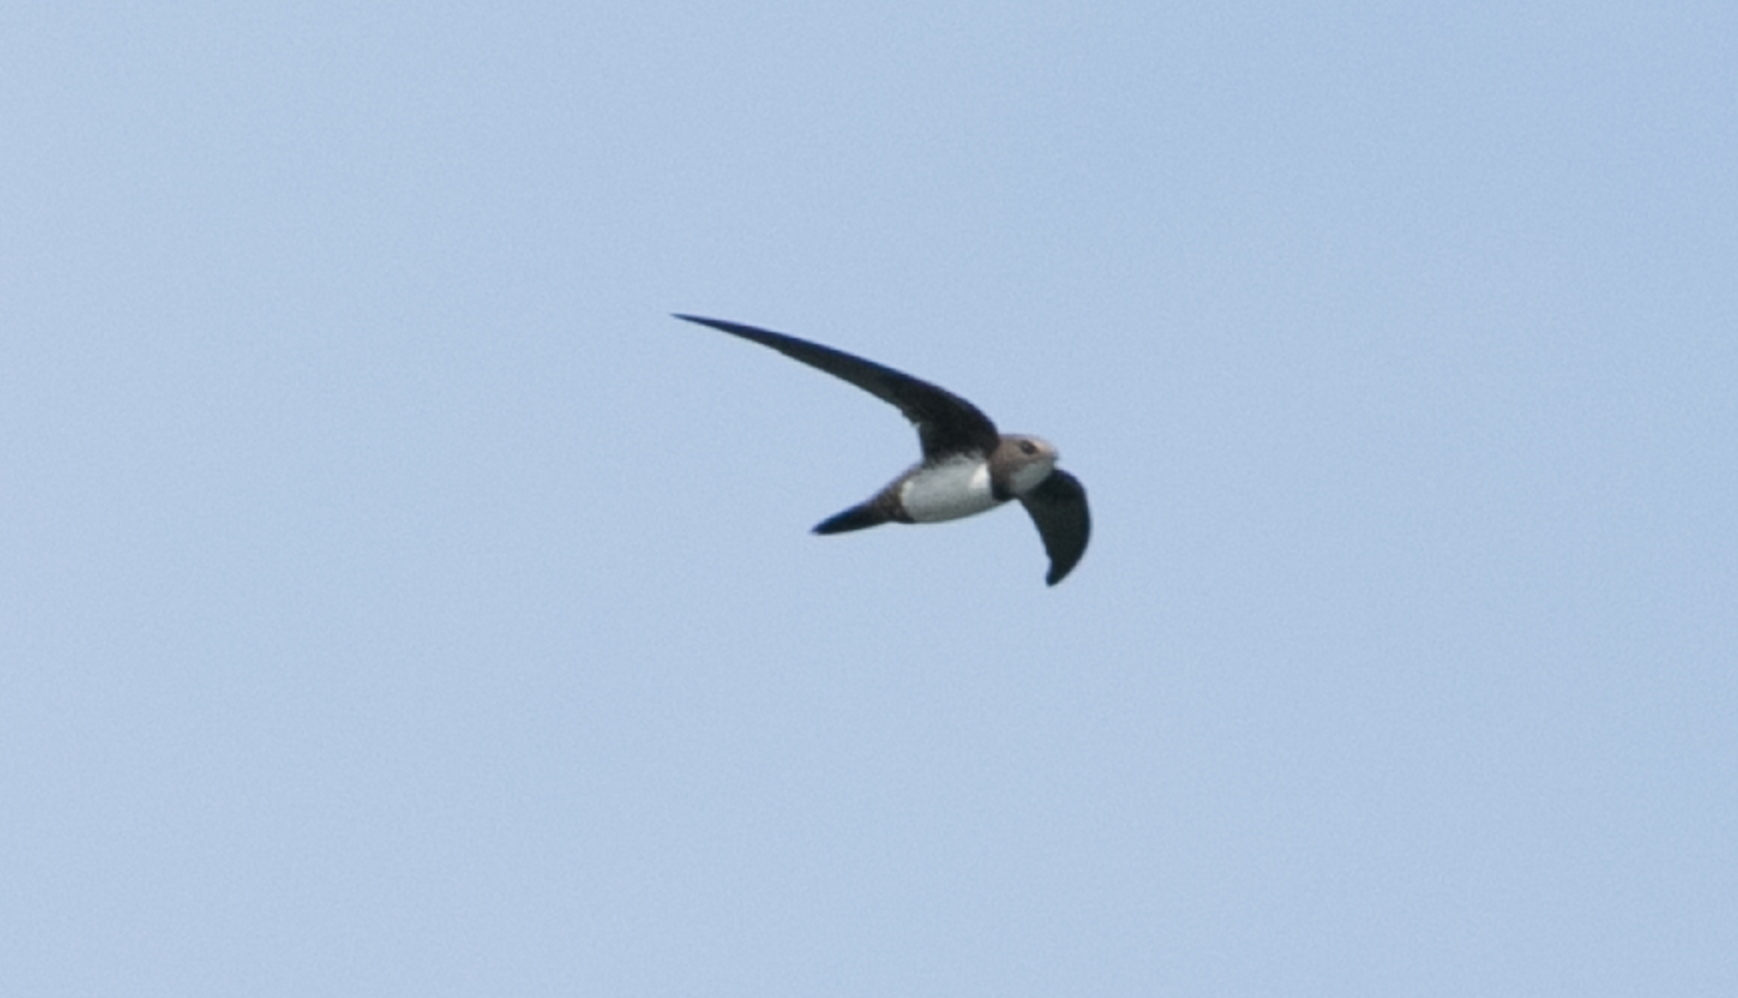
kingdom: Animalia
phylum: Chordata
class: Aves
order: Apodiformes
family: Apodidae
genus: Tachymarptis
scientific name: Tachymarptis melba
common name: Alpine swift
